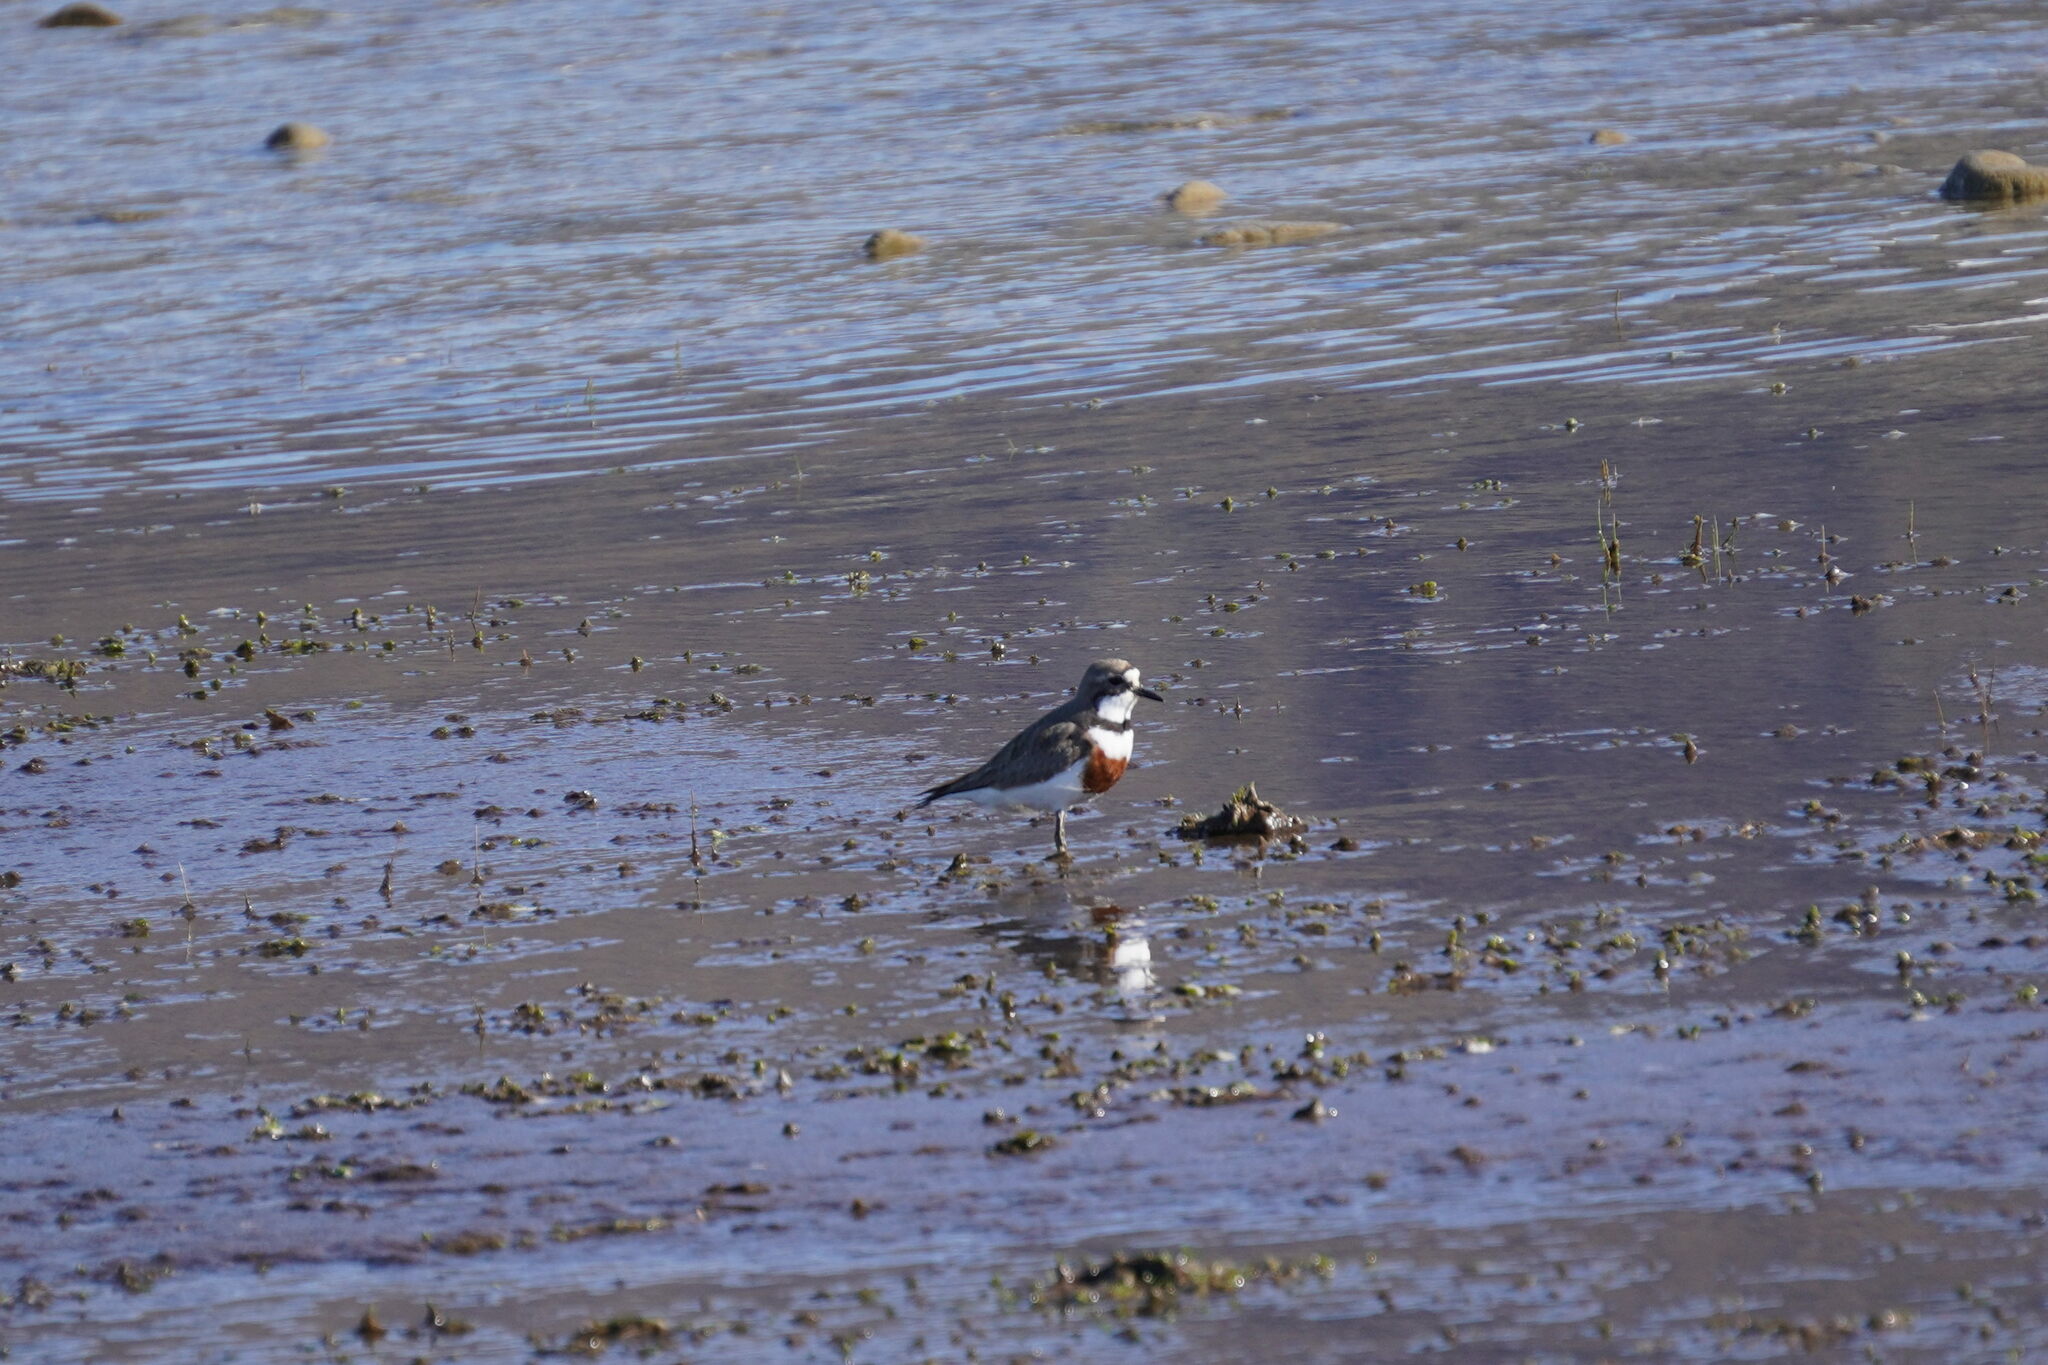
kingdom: Animalia
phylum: Chordata
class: Aves
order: Charadriiformes
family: Charadriidae
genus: Anarhynchus
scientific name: Anarhynchus
